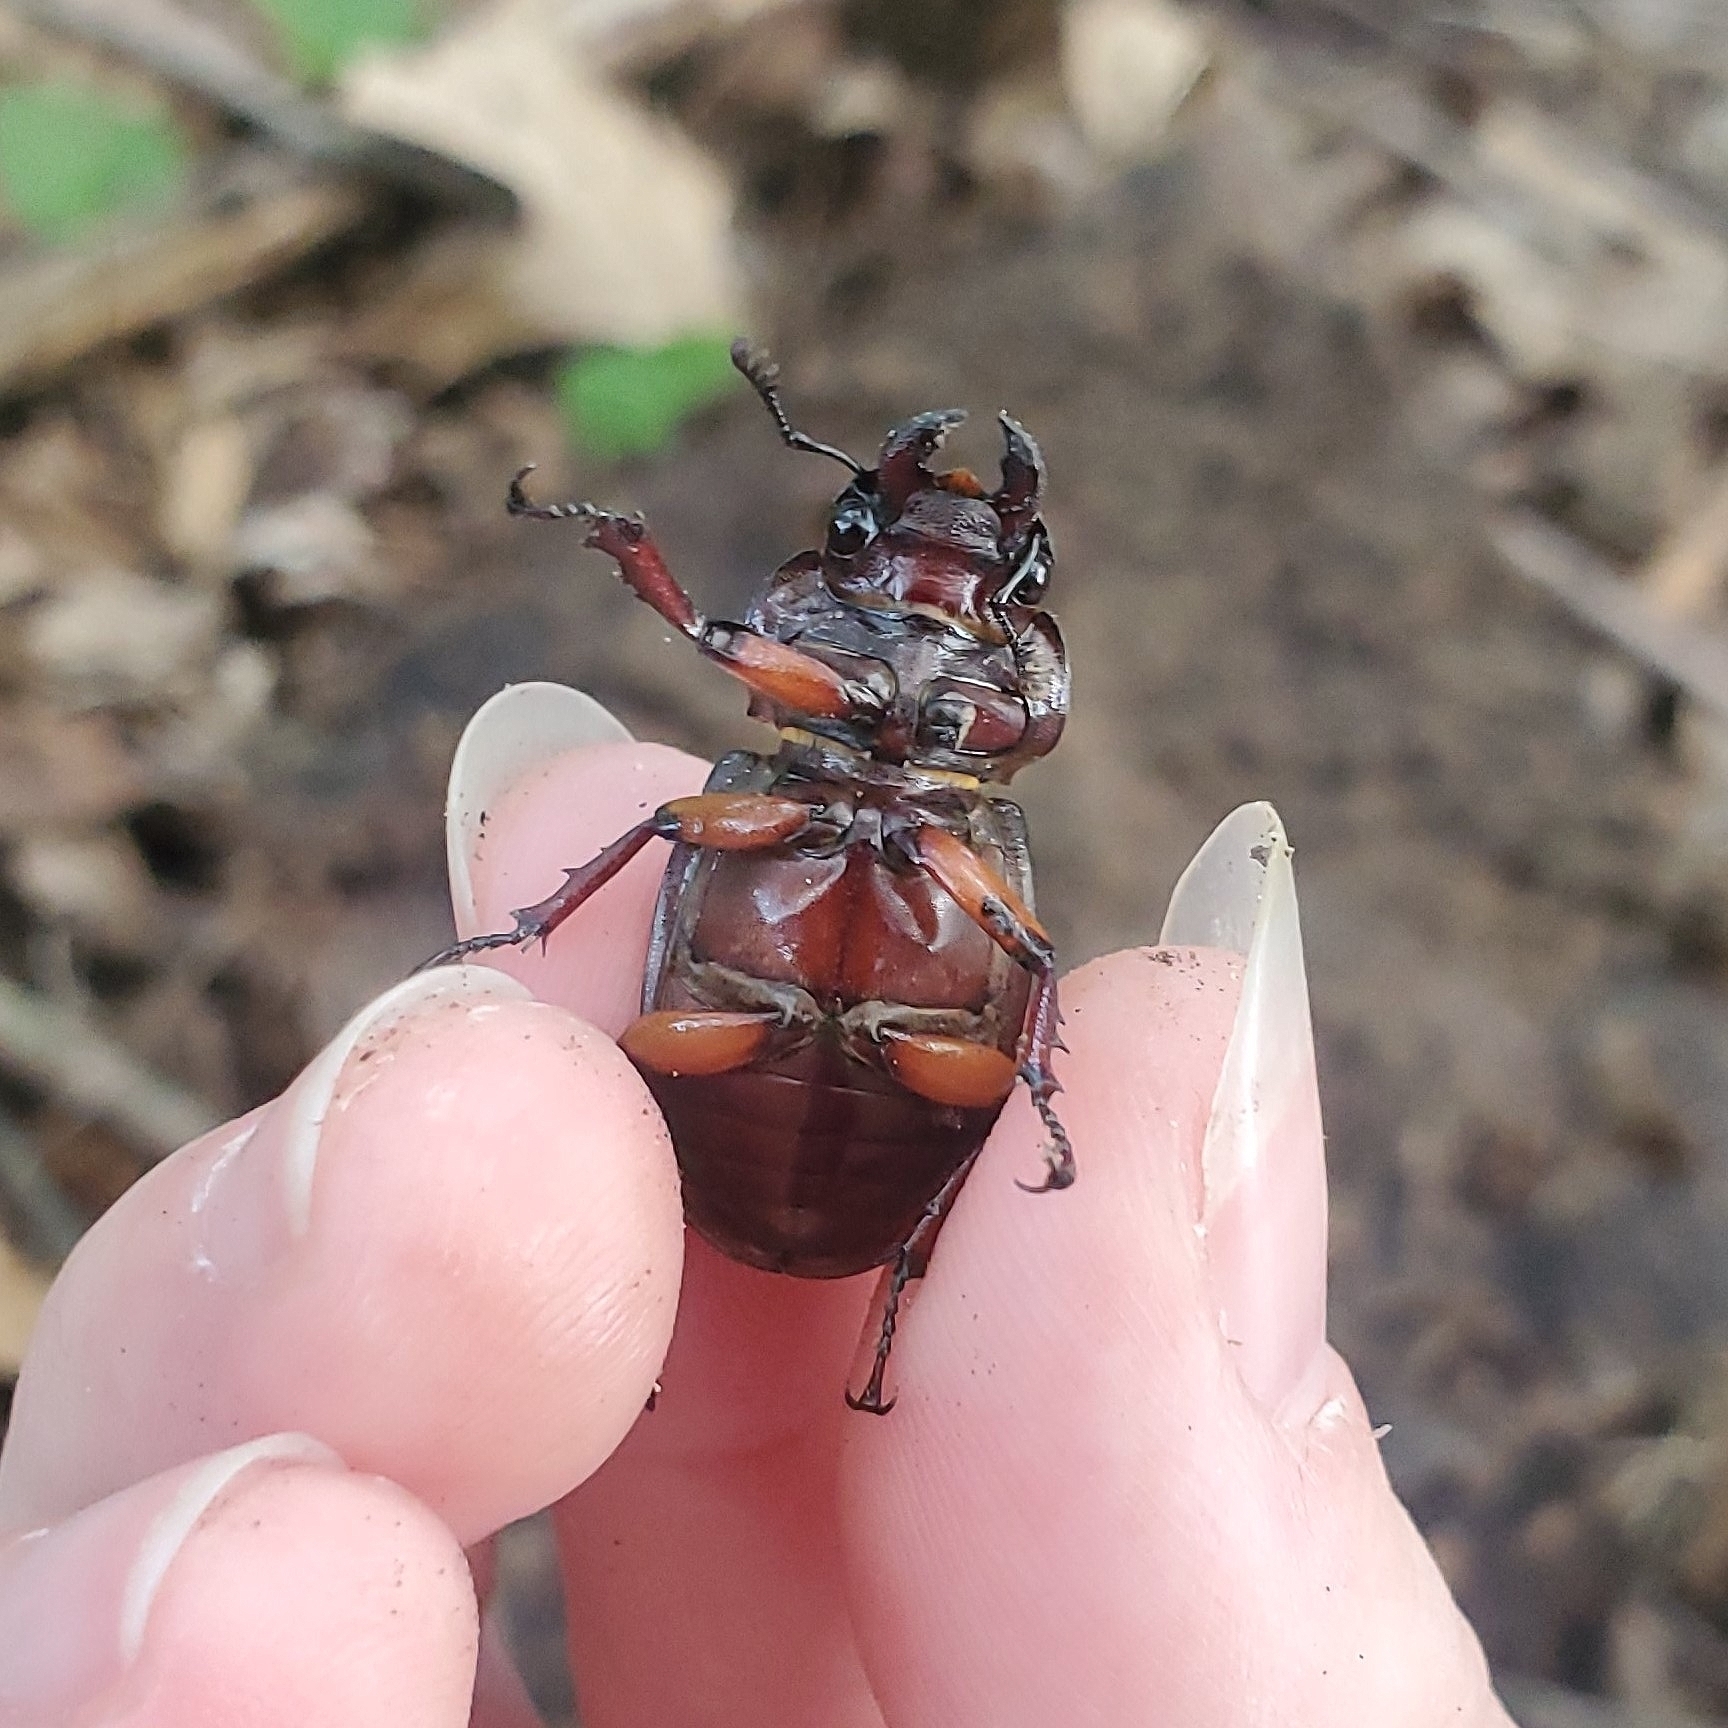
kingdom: Animalia
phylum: Arthropoda
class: Insecta
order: Coleoptera
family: Lucanidae
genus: Lucanus
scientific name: Lucanus capreolus
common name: Stag beetle
